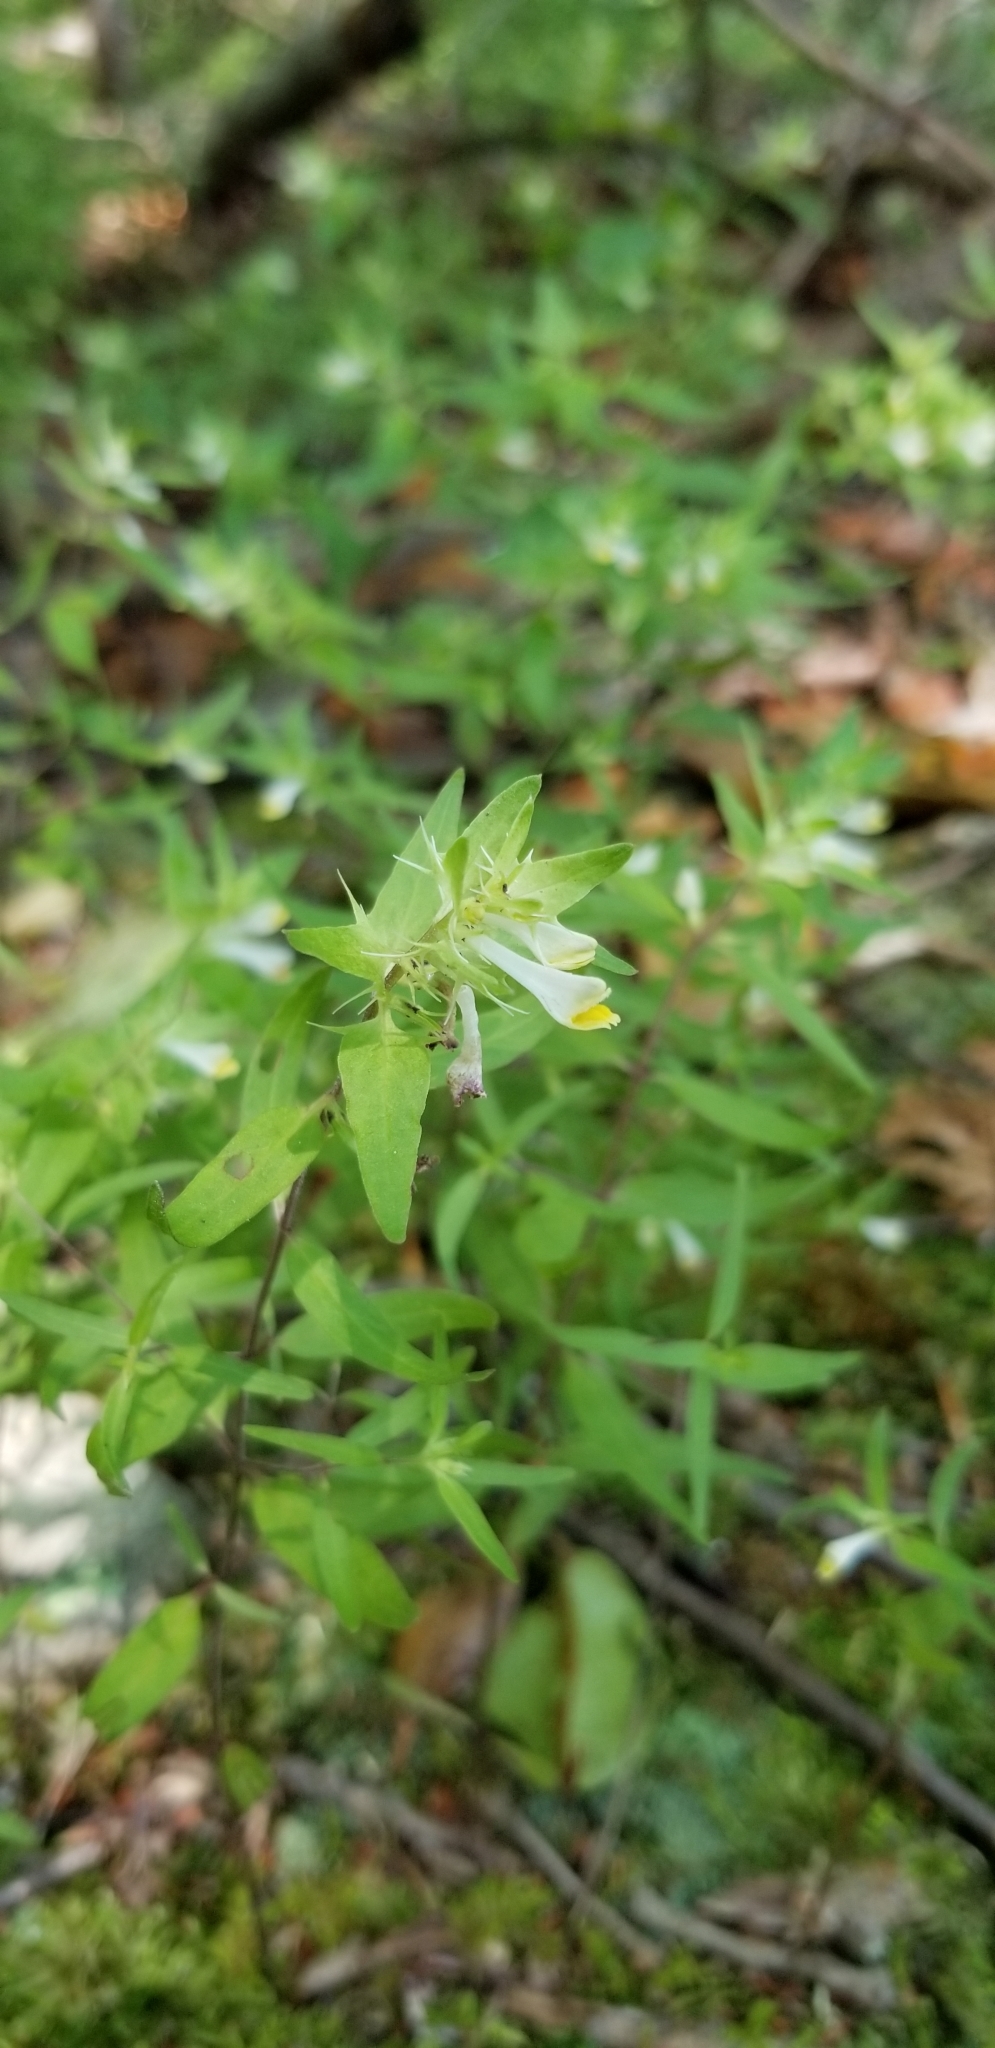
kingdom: Plantae
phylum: Tracheophyta
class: Magnoliopsida
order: Lamiales
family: Orobanchaceae
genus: Melampyrum
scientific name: Melampyrum lineare
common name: American cow-wheat
